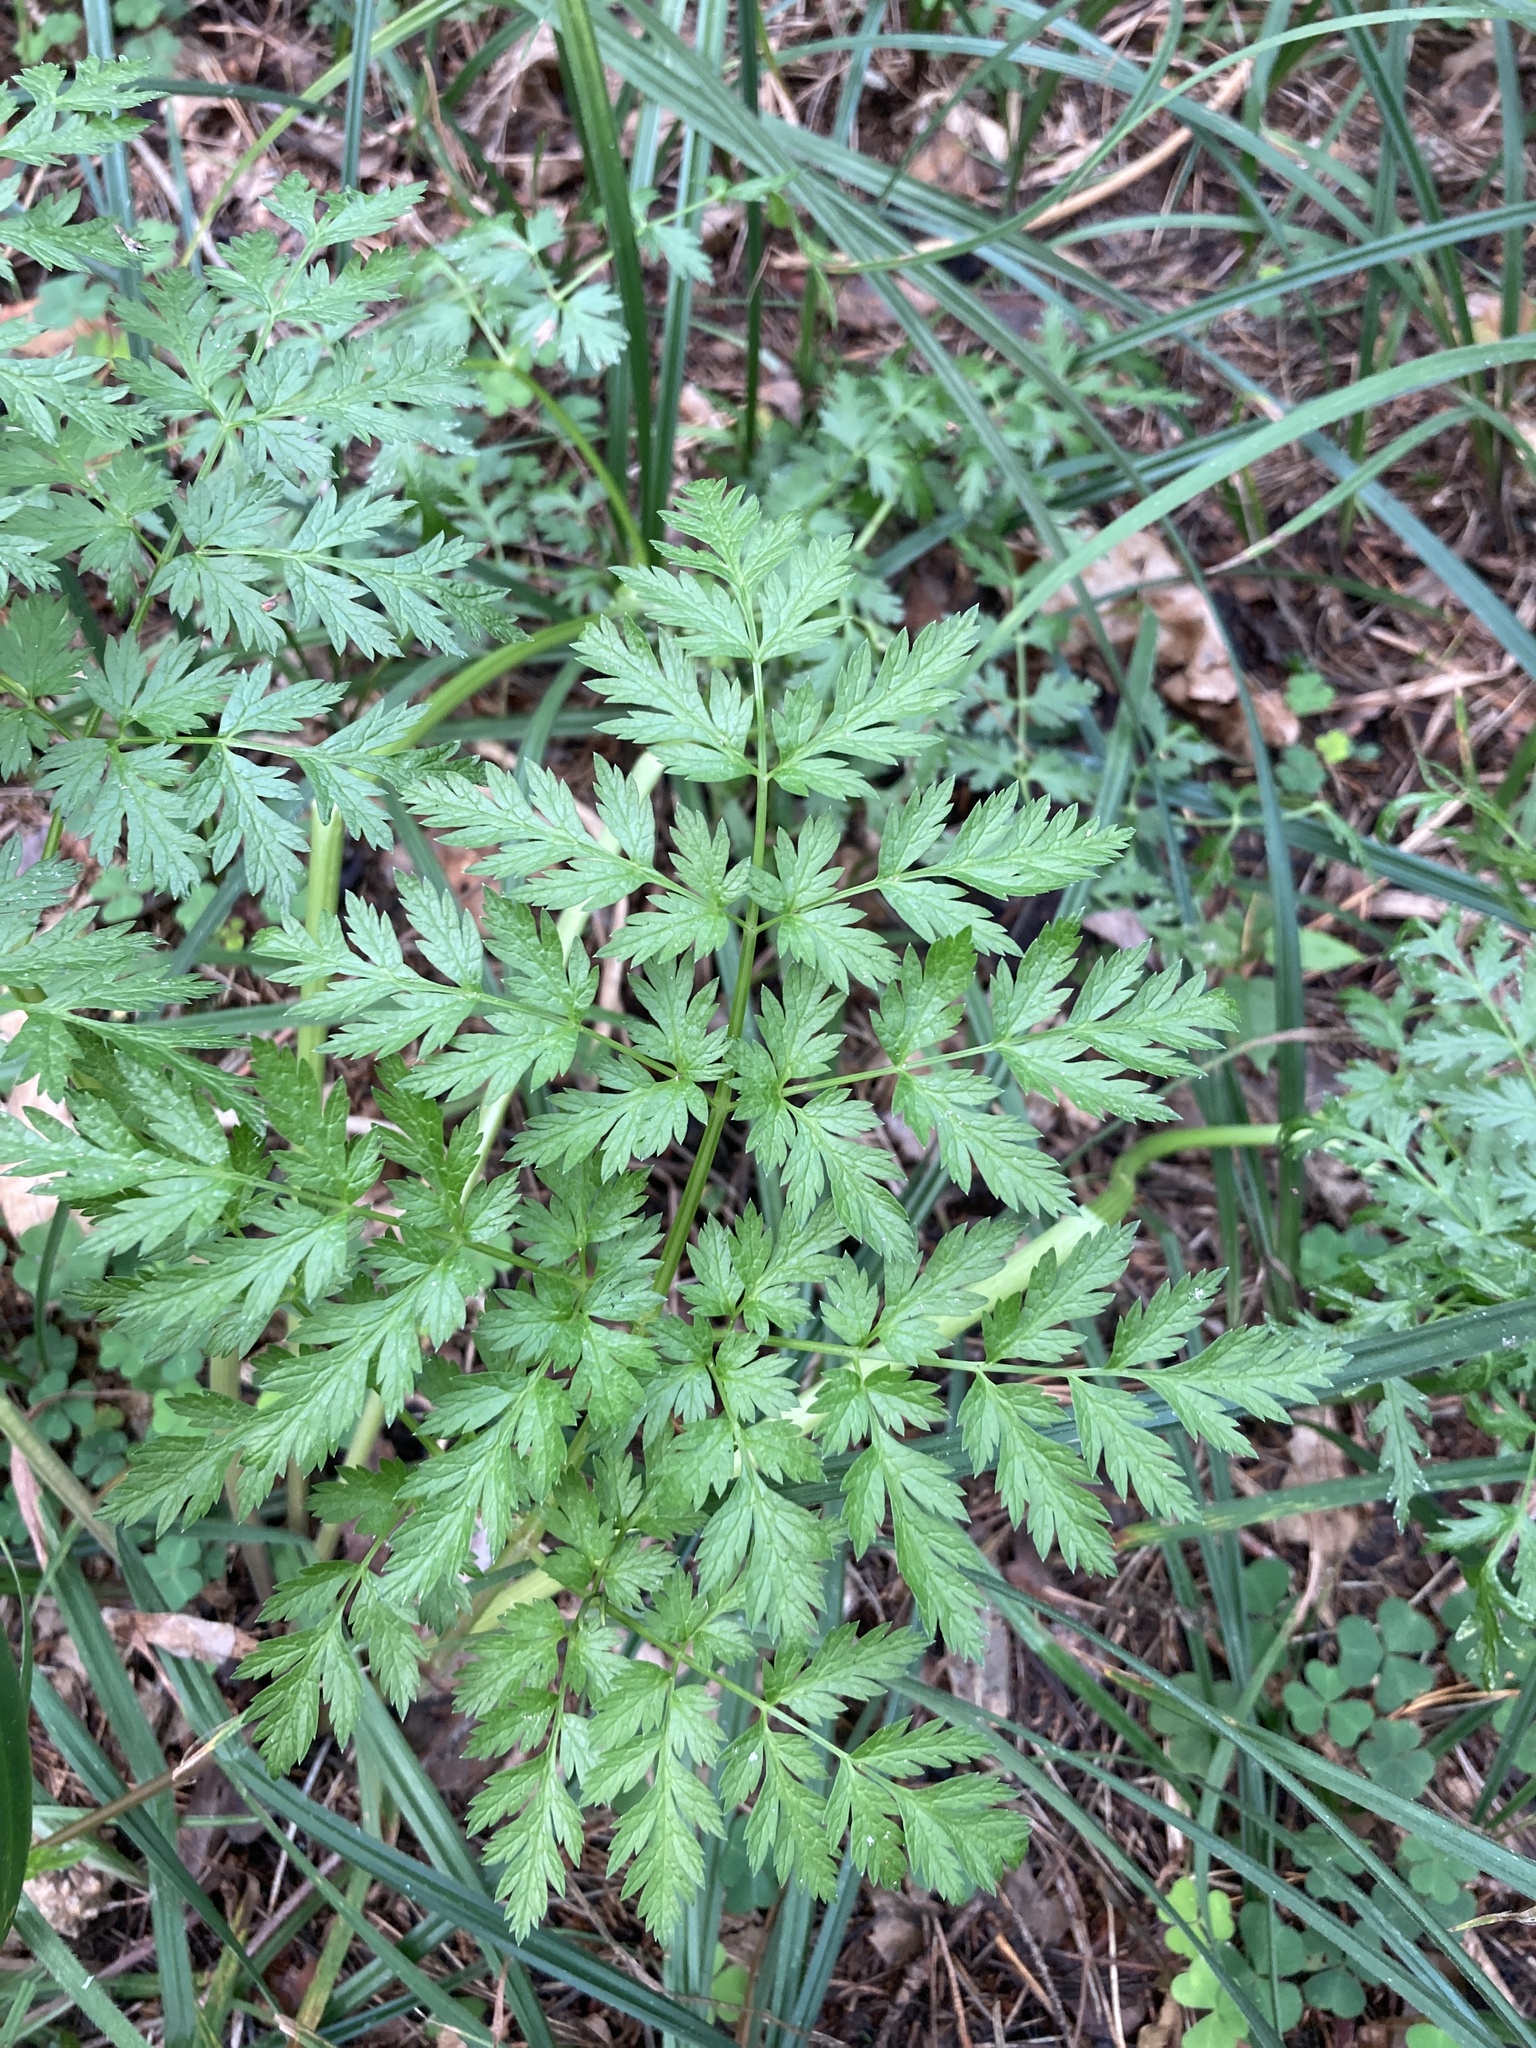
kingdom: Plantae
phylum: Tracheophyta
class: Magnoliopsida
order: Apiales
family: Apiaceae
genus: Anthriscus
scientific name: Anthriscus sylvestris
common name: Cow parsley
